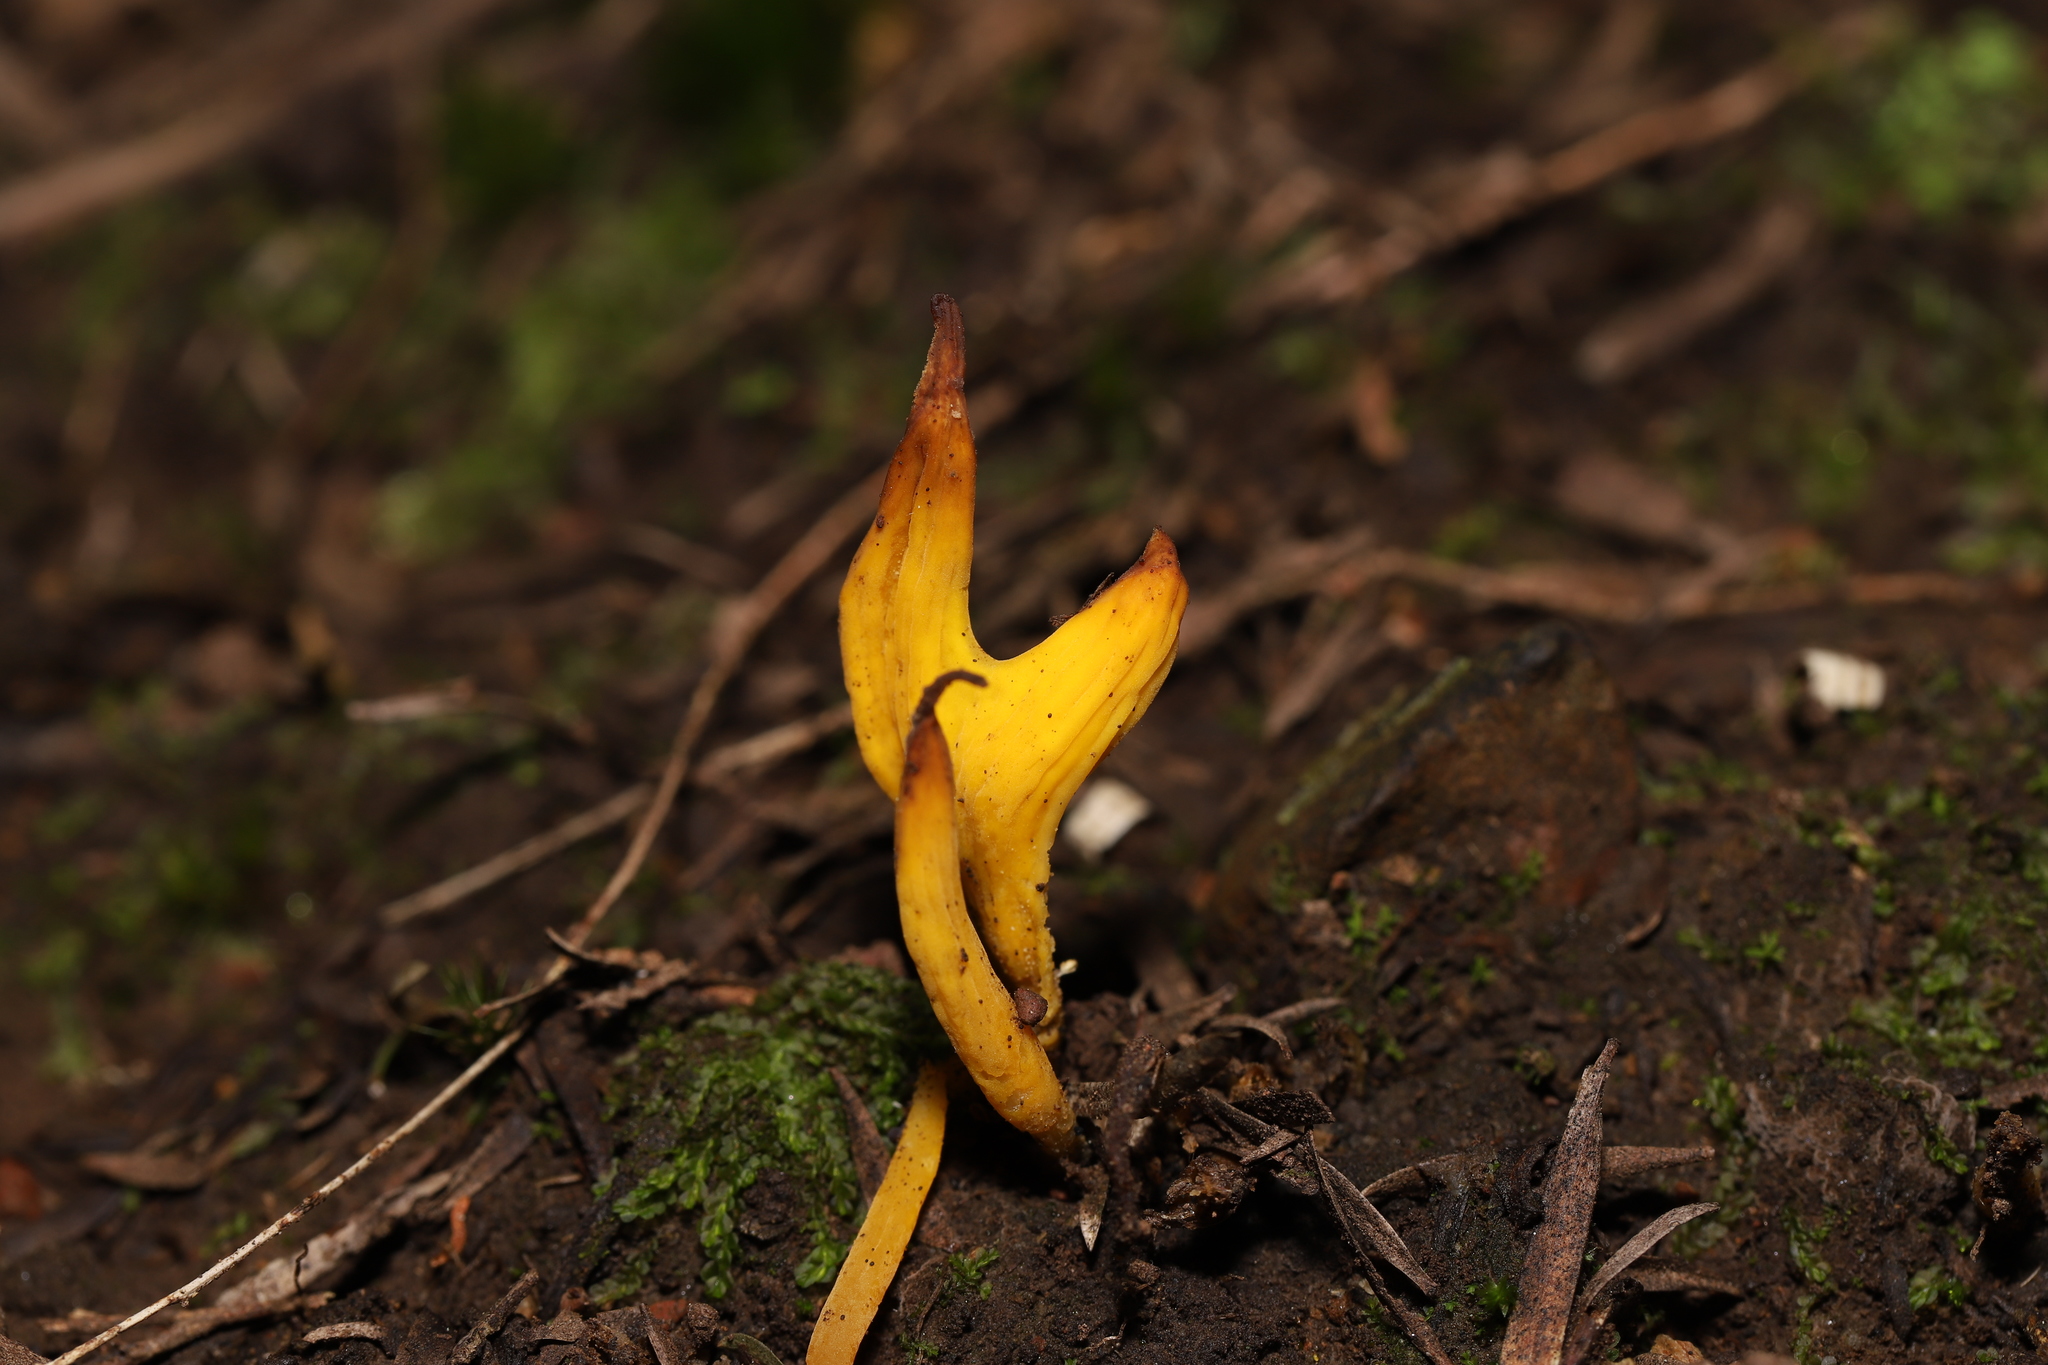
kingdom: Fungi
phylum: Basidiomycota
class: Agaricomycetes
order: Agaricales
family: Clavariaceae
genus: Clavulinopsis
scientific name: Clavulinopsis amoena
